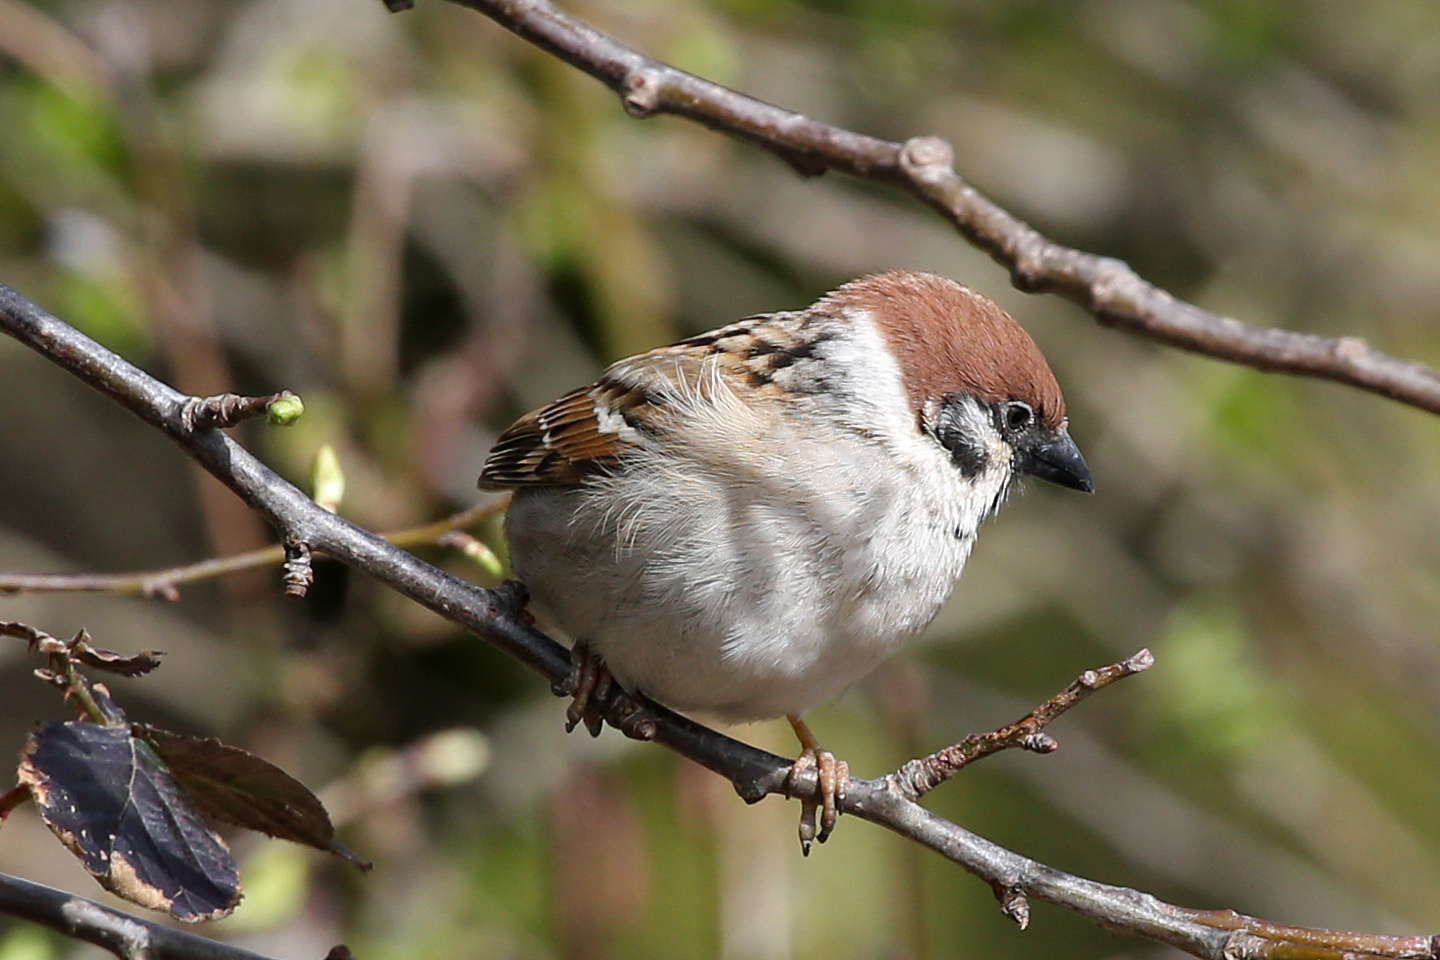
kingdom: Animalia
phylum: Chordata
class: Aves
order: Passeriformes
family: Passeridae
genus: Passer
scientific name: Passer montanus
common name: Eurasian tree sparrow
